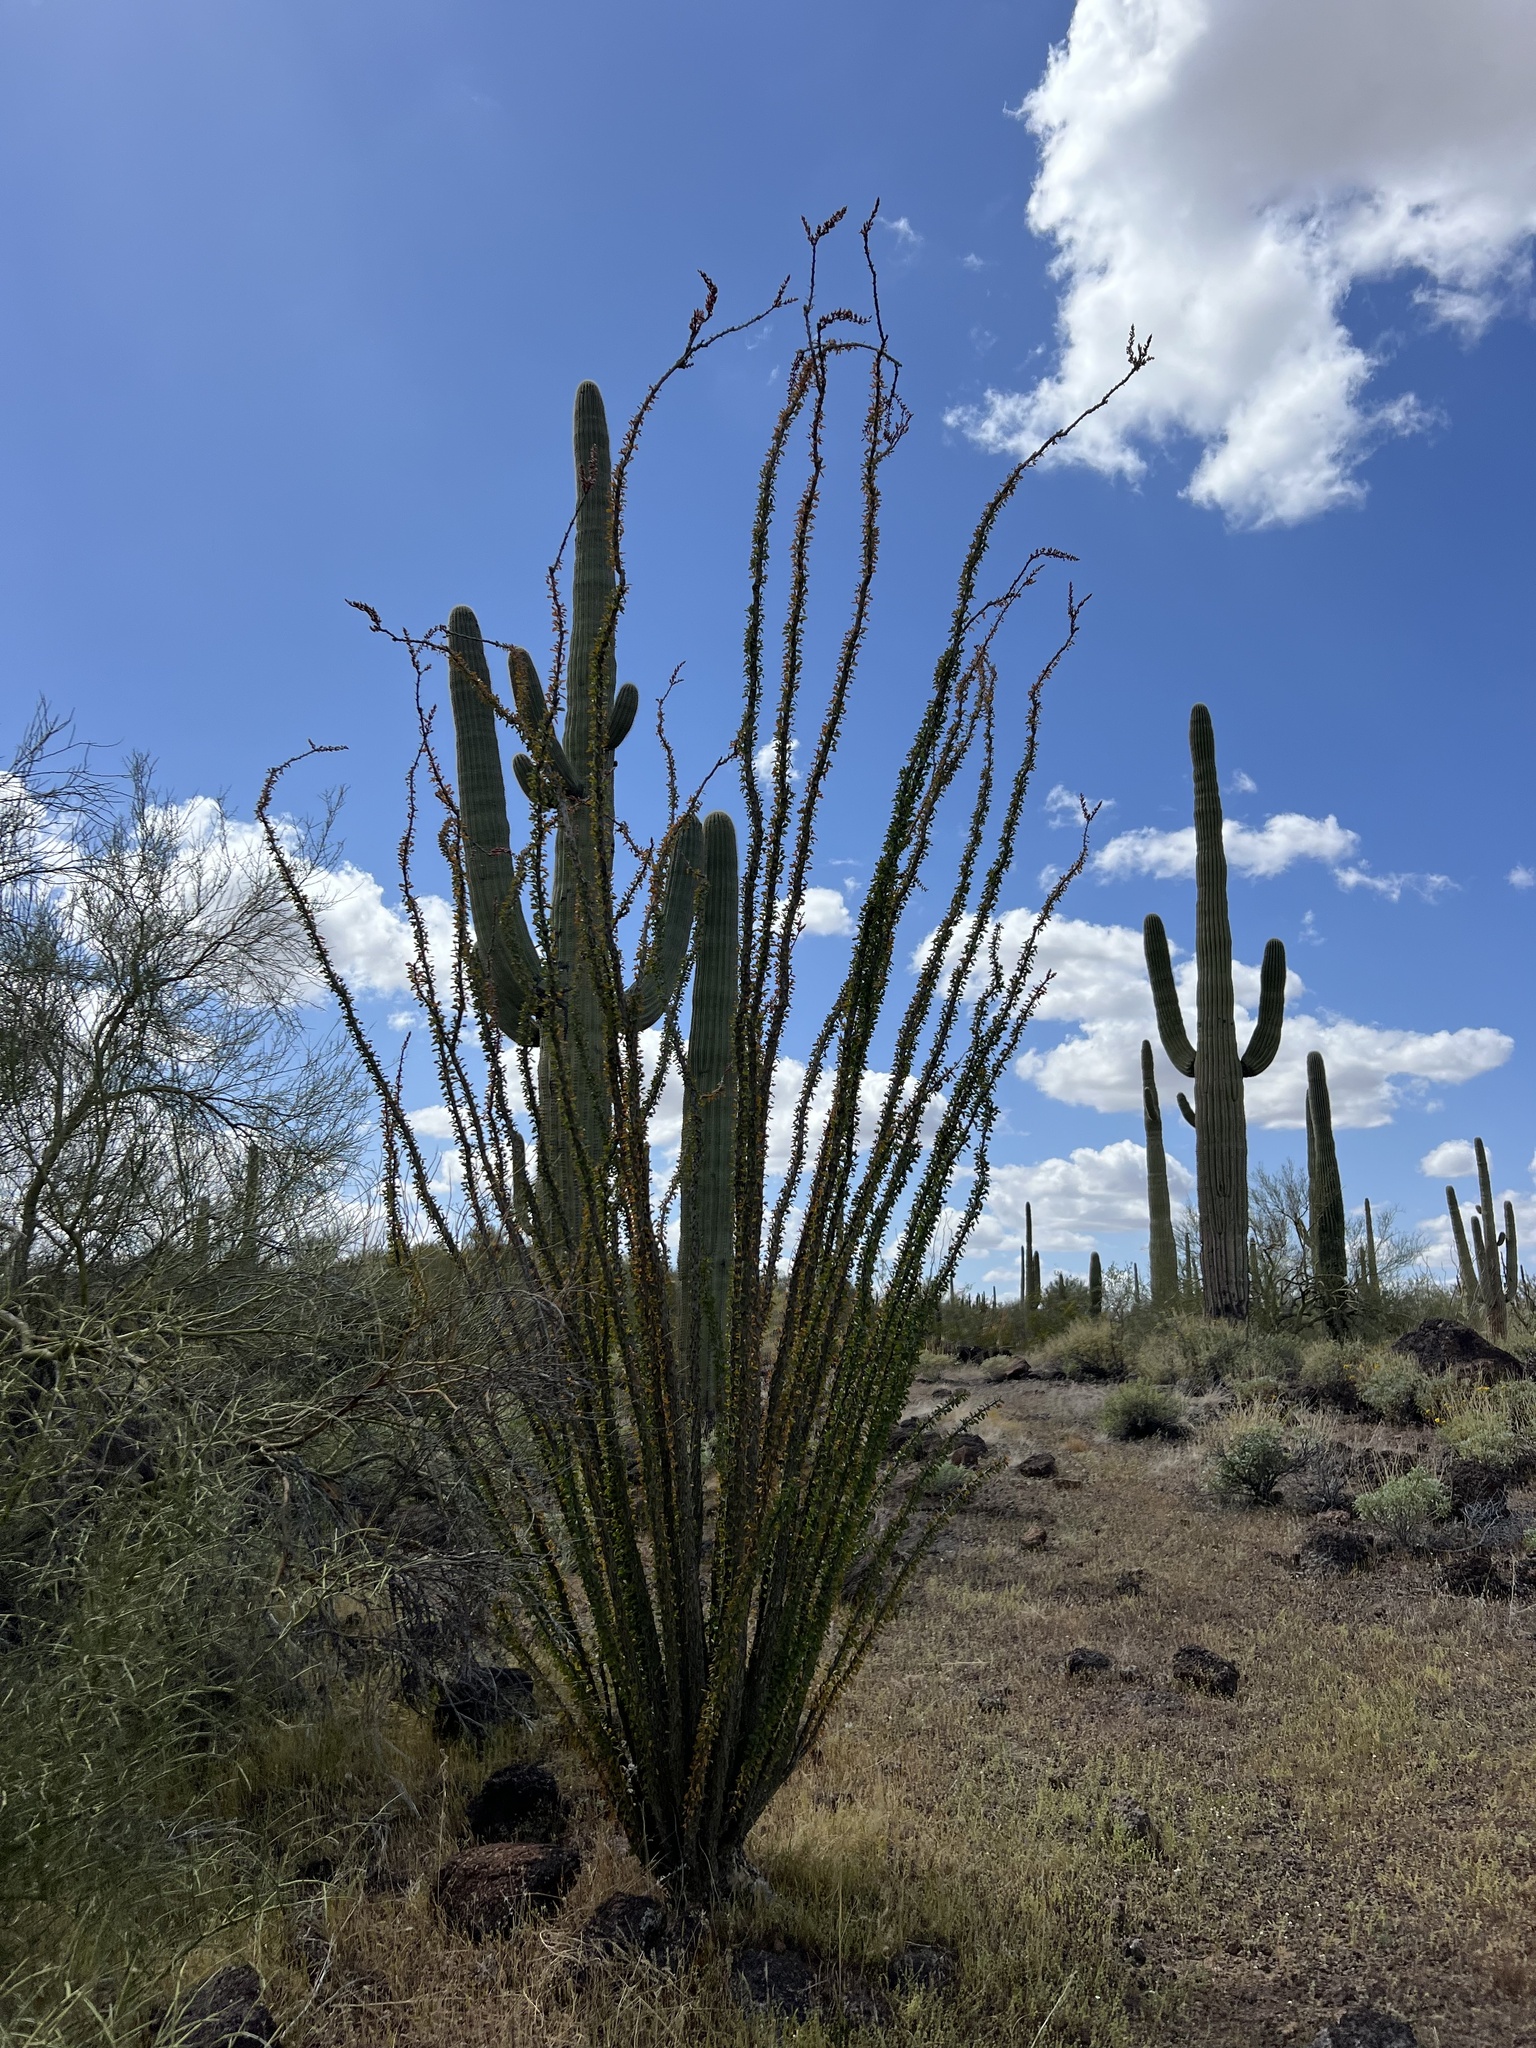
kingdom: Plantae
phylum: Tracheophyta
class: Magnoliopsida
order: Ericales
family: Fouquieriaceae
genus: Fouquieria
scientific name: Fouquieria splendens
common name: Vine-cactus
